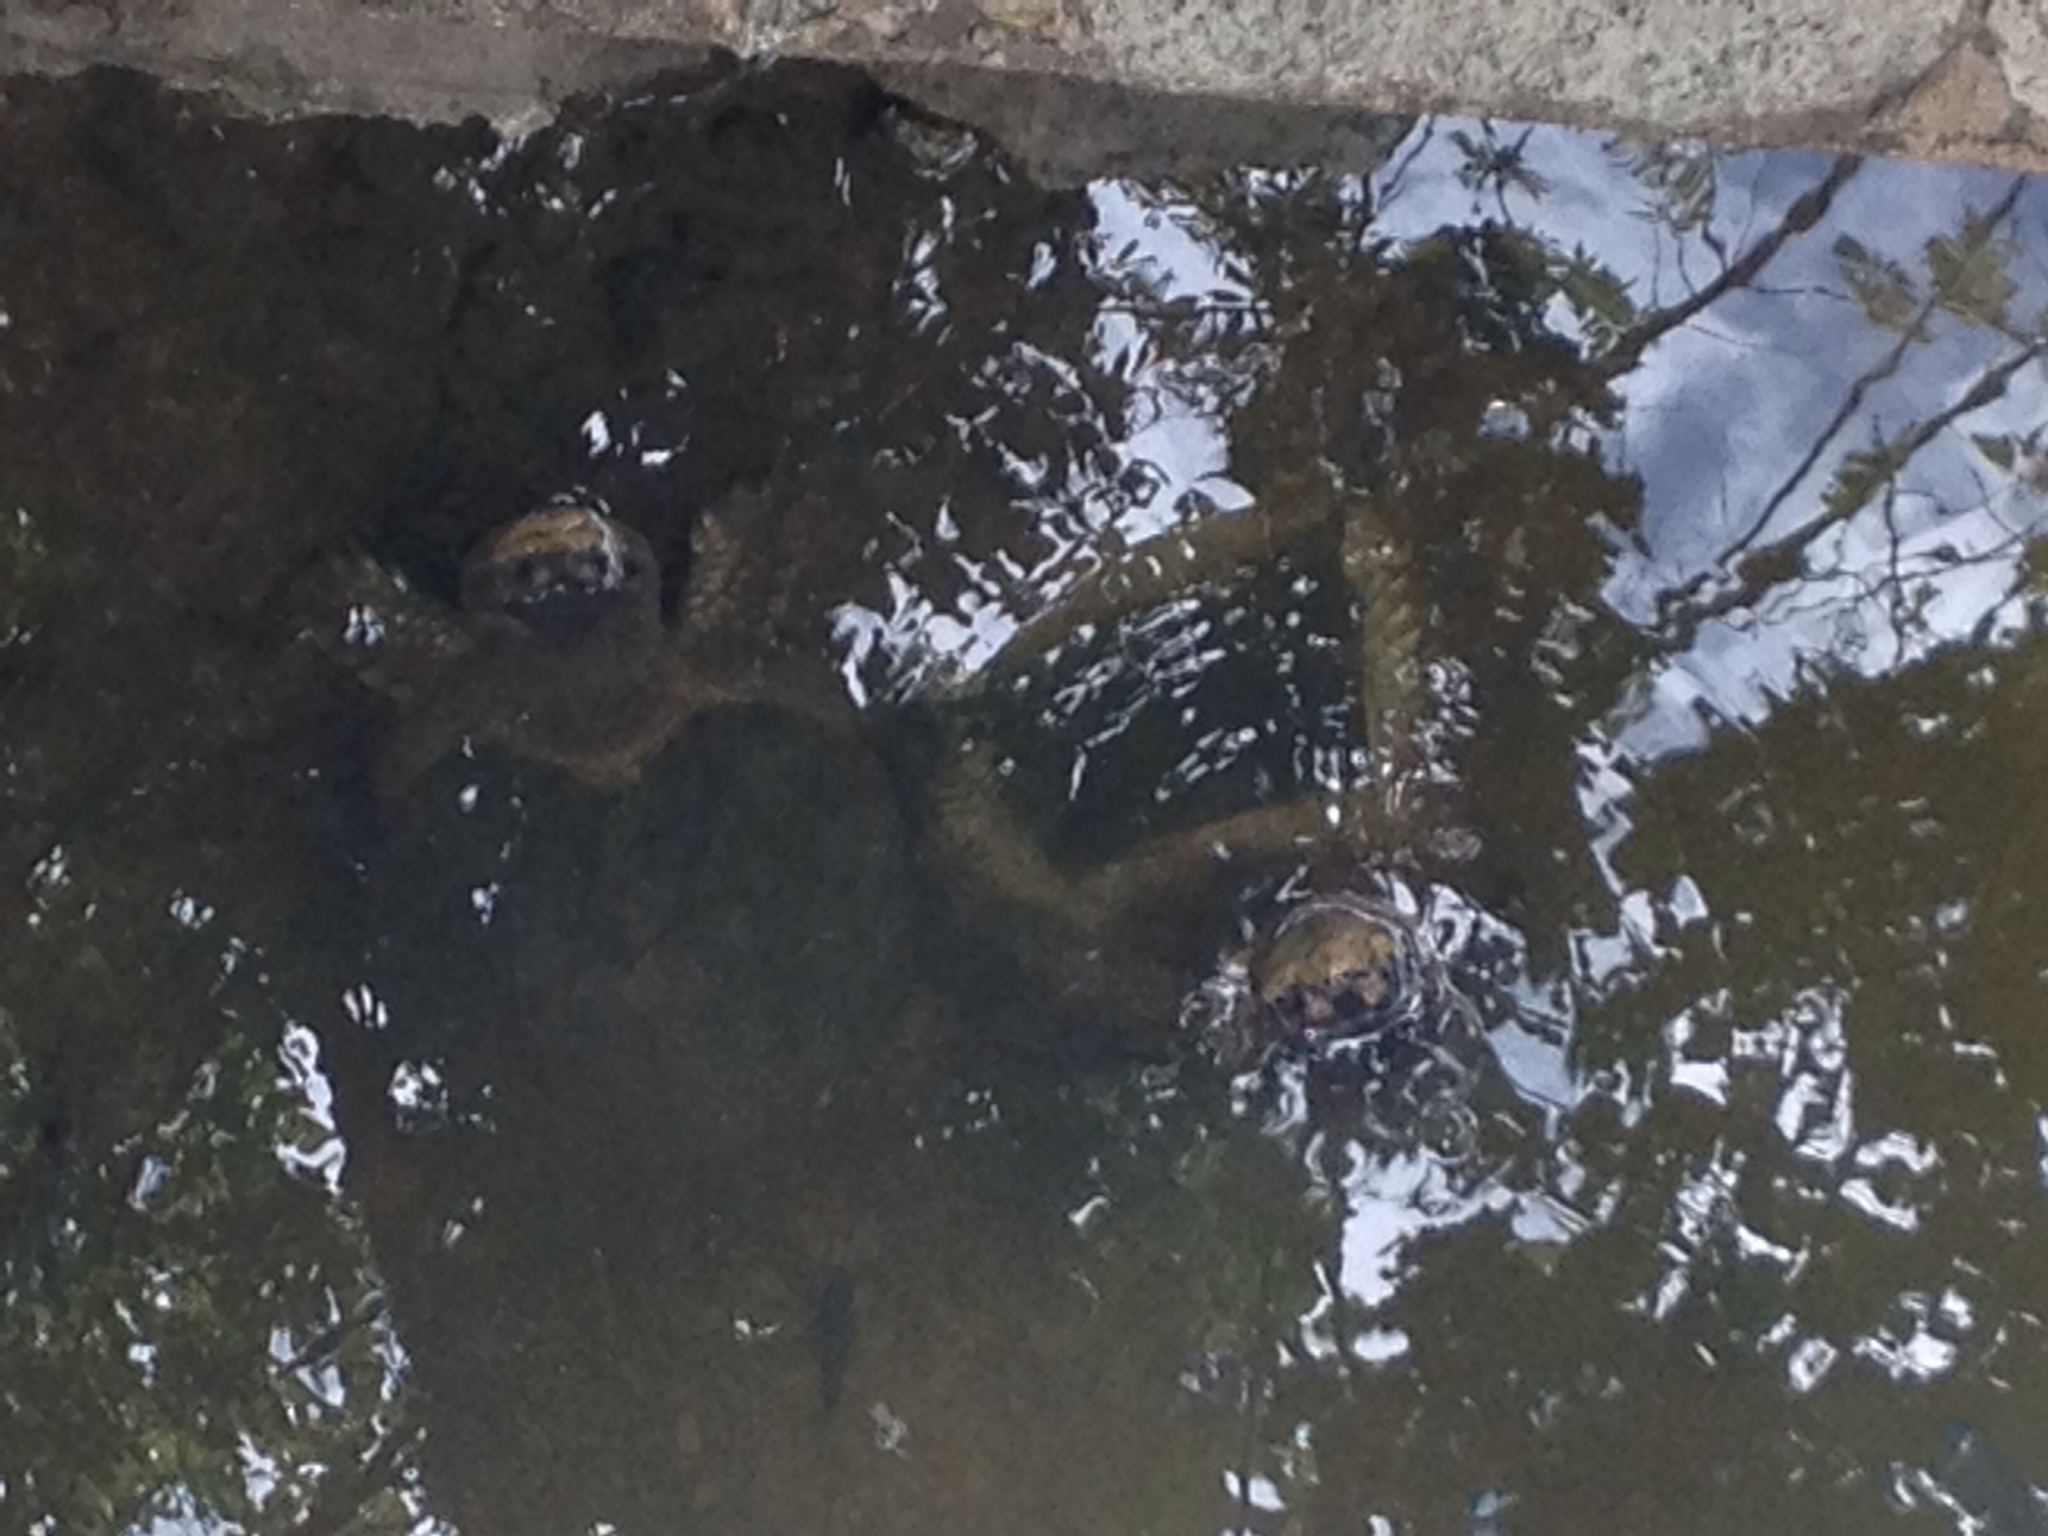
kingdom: Animalia
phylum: Chordata
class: Testudines
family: Chelydridae
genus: Chelydra
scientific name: Chelydra serpentina
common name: Common snapping turtle
